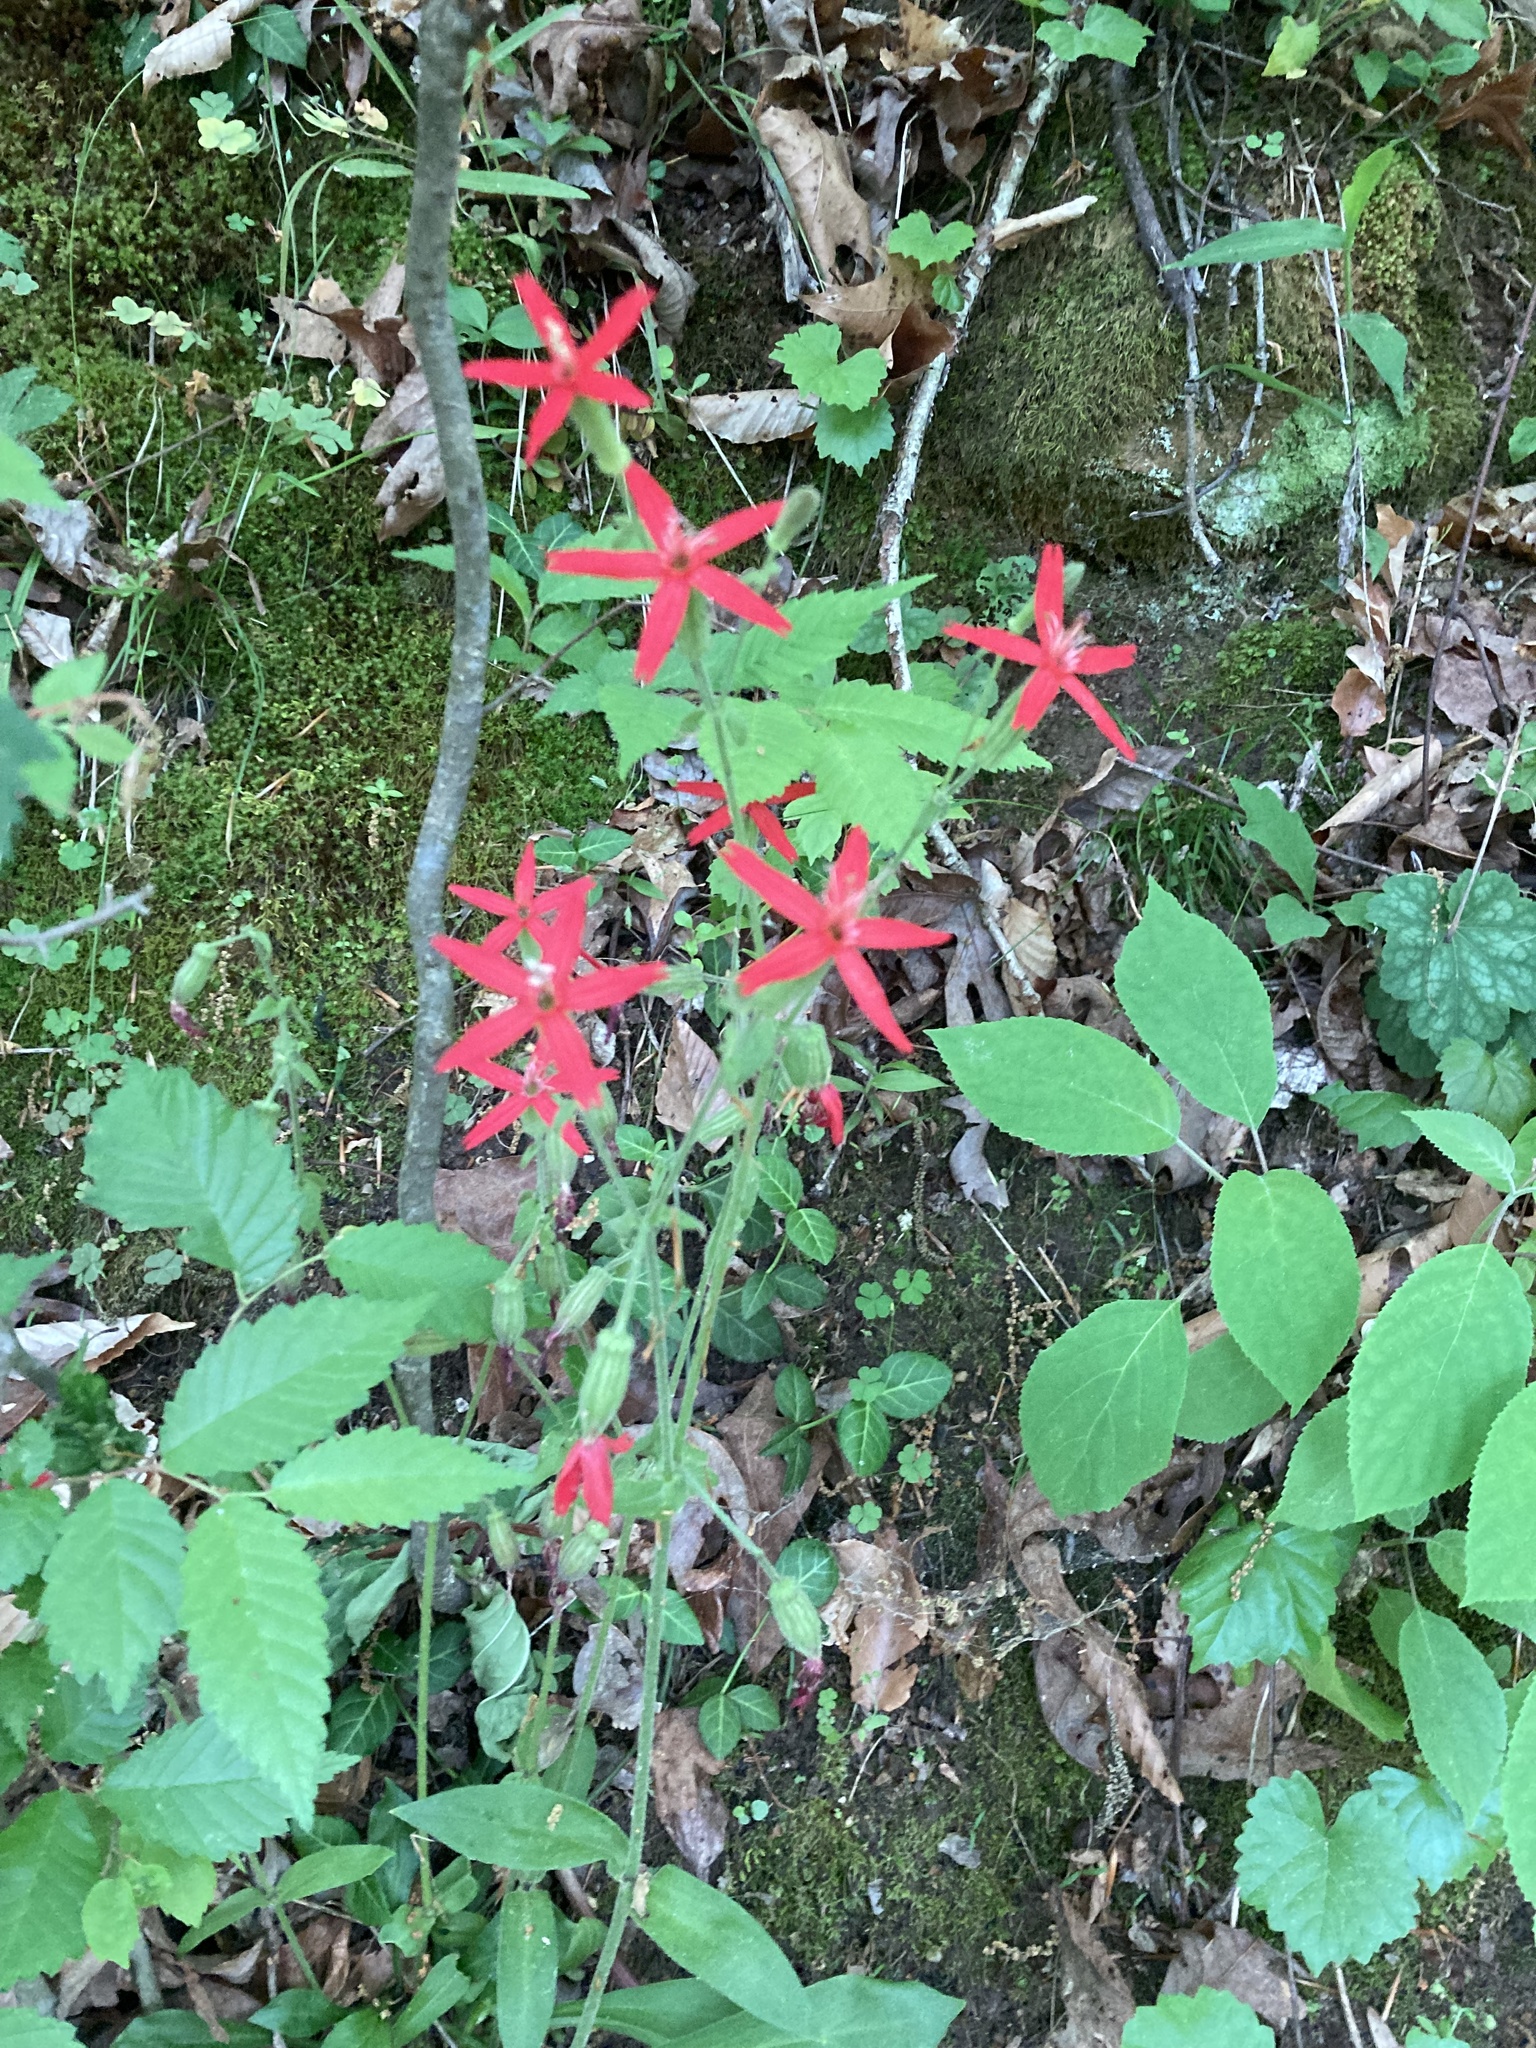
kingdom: Plantae
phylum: Tracheophyta
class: Magnoliopsida
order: Caryophyllales
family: Caryophyllaceae
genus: Silene
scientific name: Silene virginica
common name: Fire-pink
